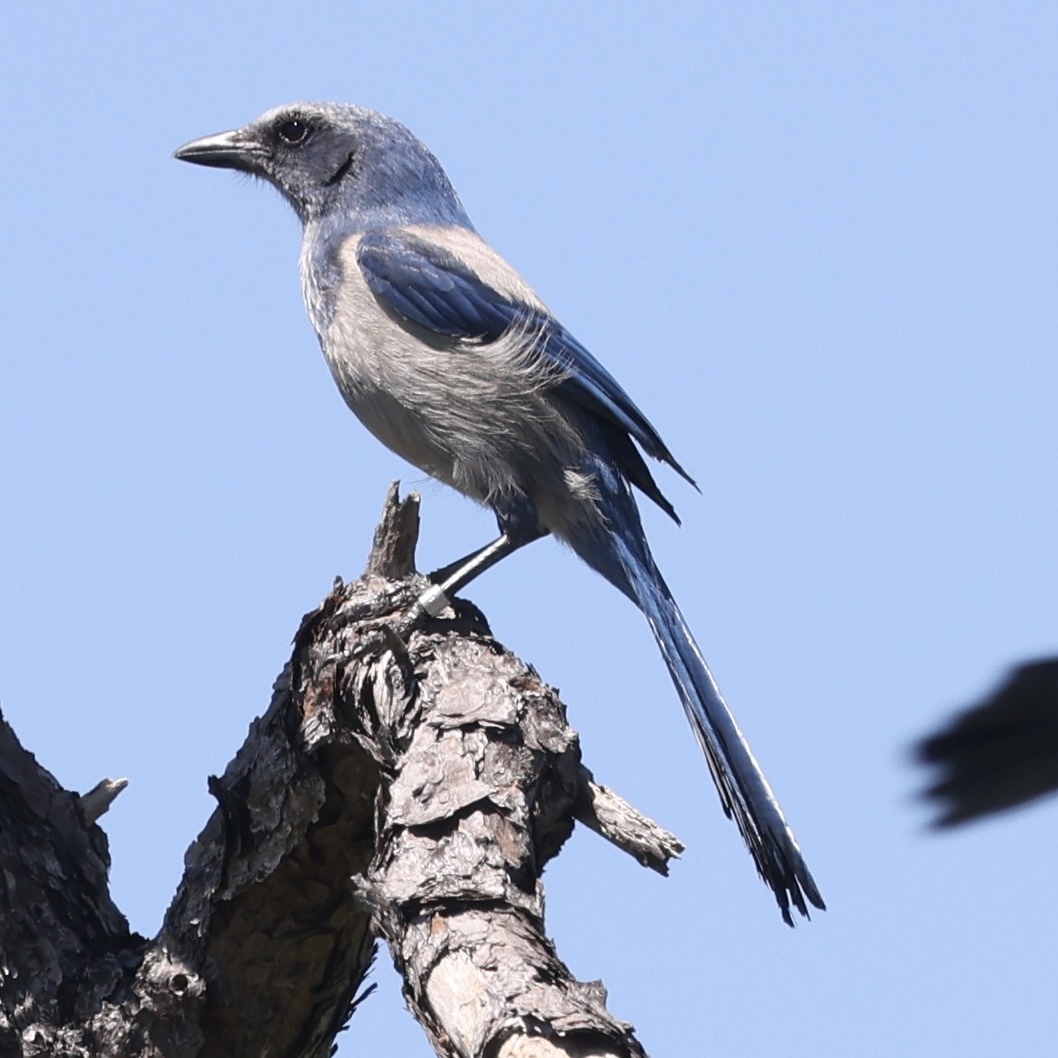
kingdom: Animalia
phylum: Chordata
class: Aves
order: Passeriformes
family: Corvidae
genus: Aphelocoma
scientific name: Aphelocoma coerulescens
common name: Florida scrub jay
